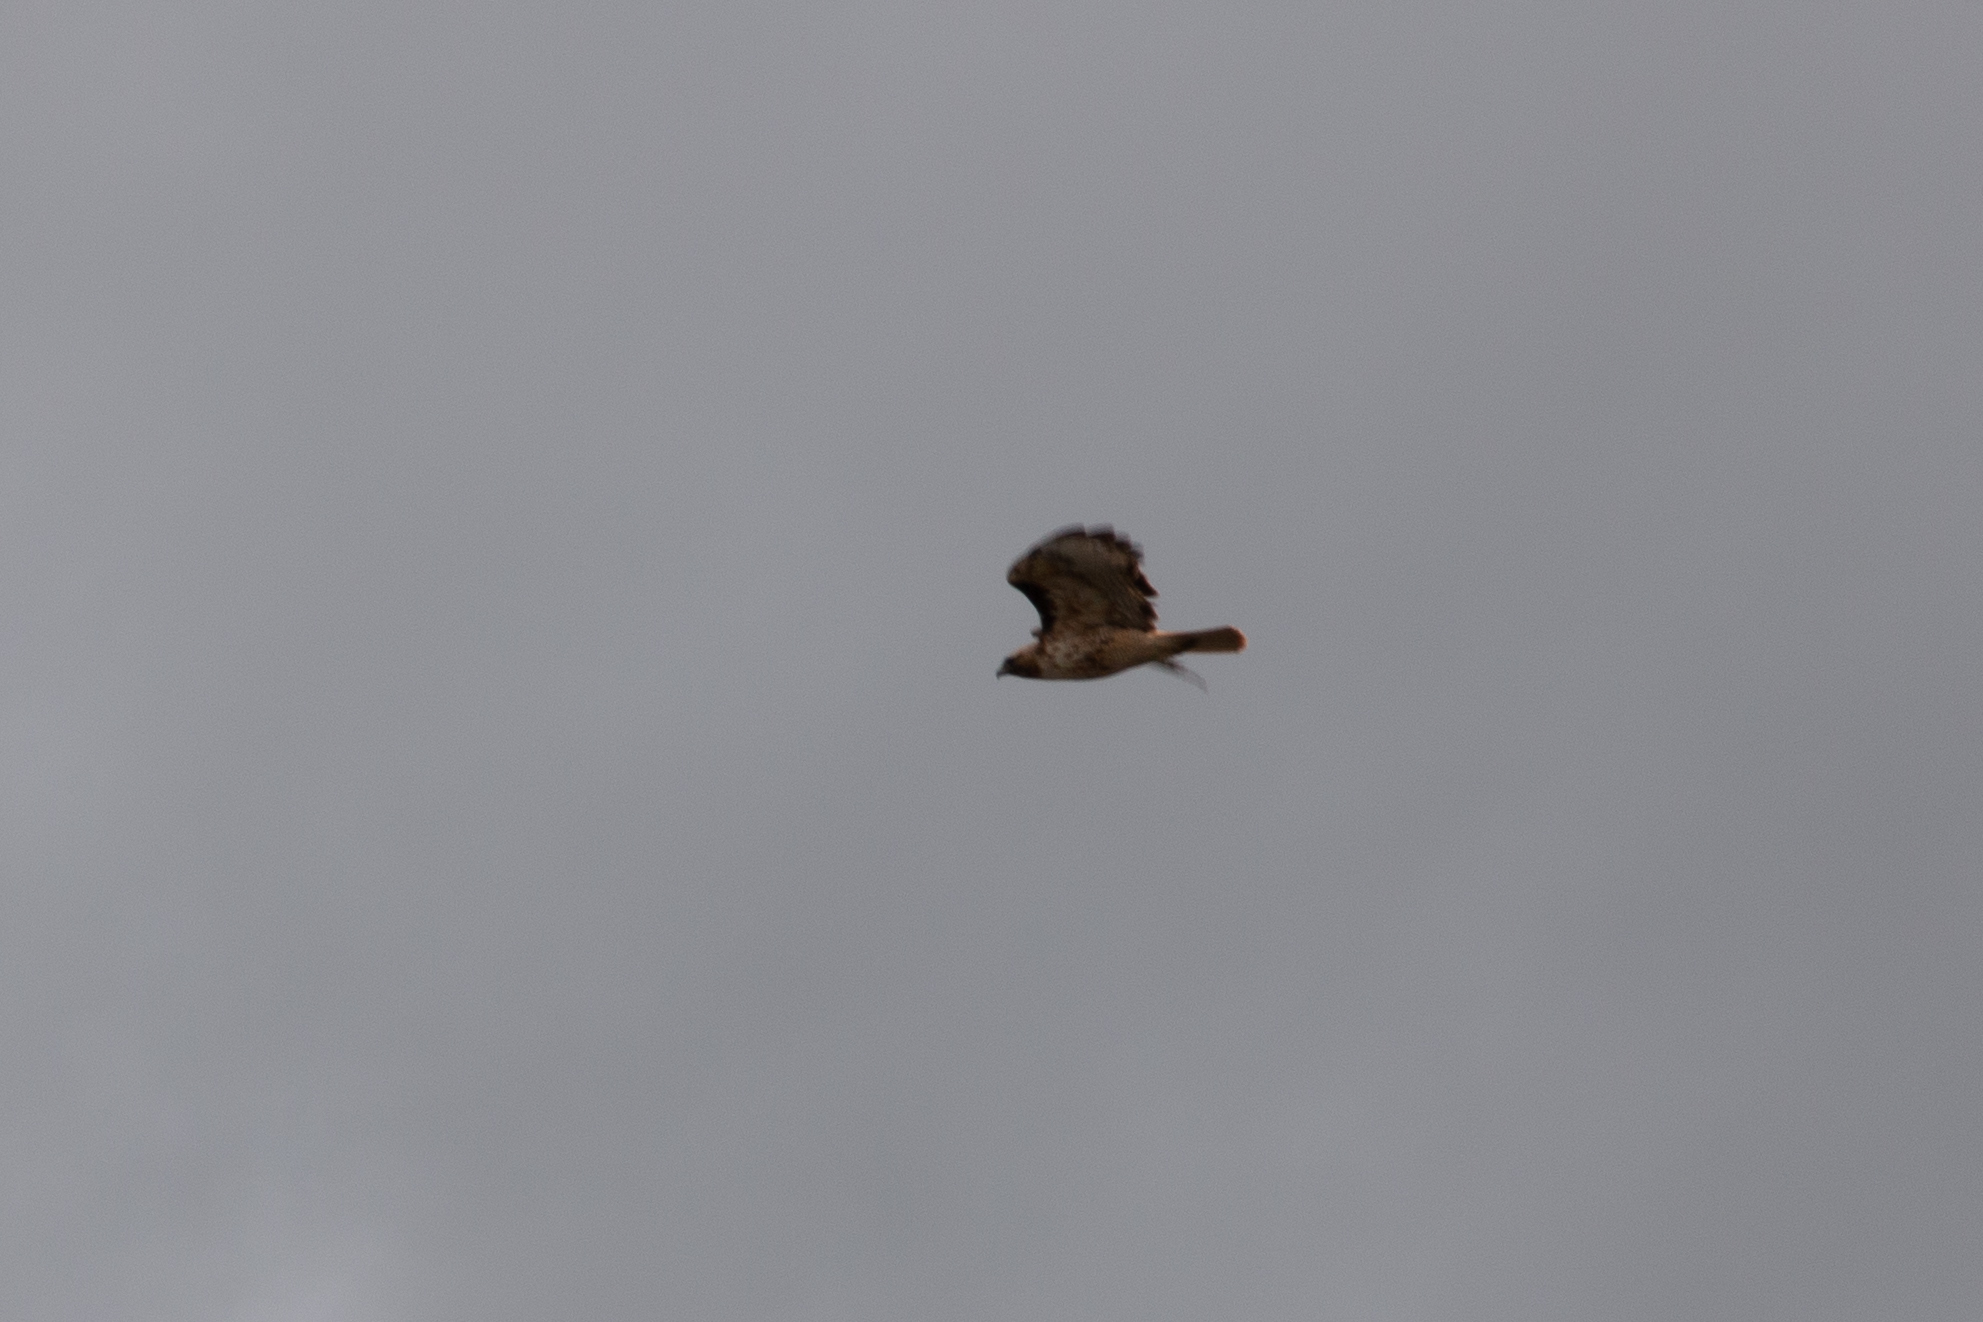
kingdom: Animalia
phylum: Chordata
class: Aves
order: Accipitriformes
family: Accipitridae
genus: Buteo
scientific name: Buteo jamaicensis
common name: Red-tailed hawk
